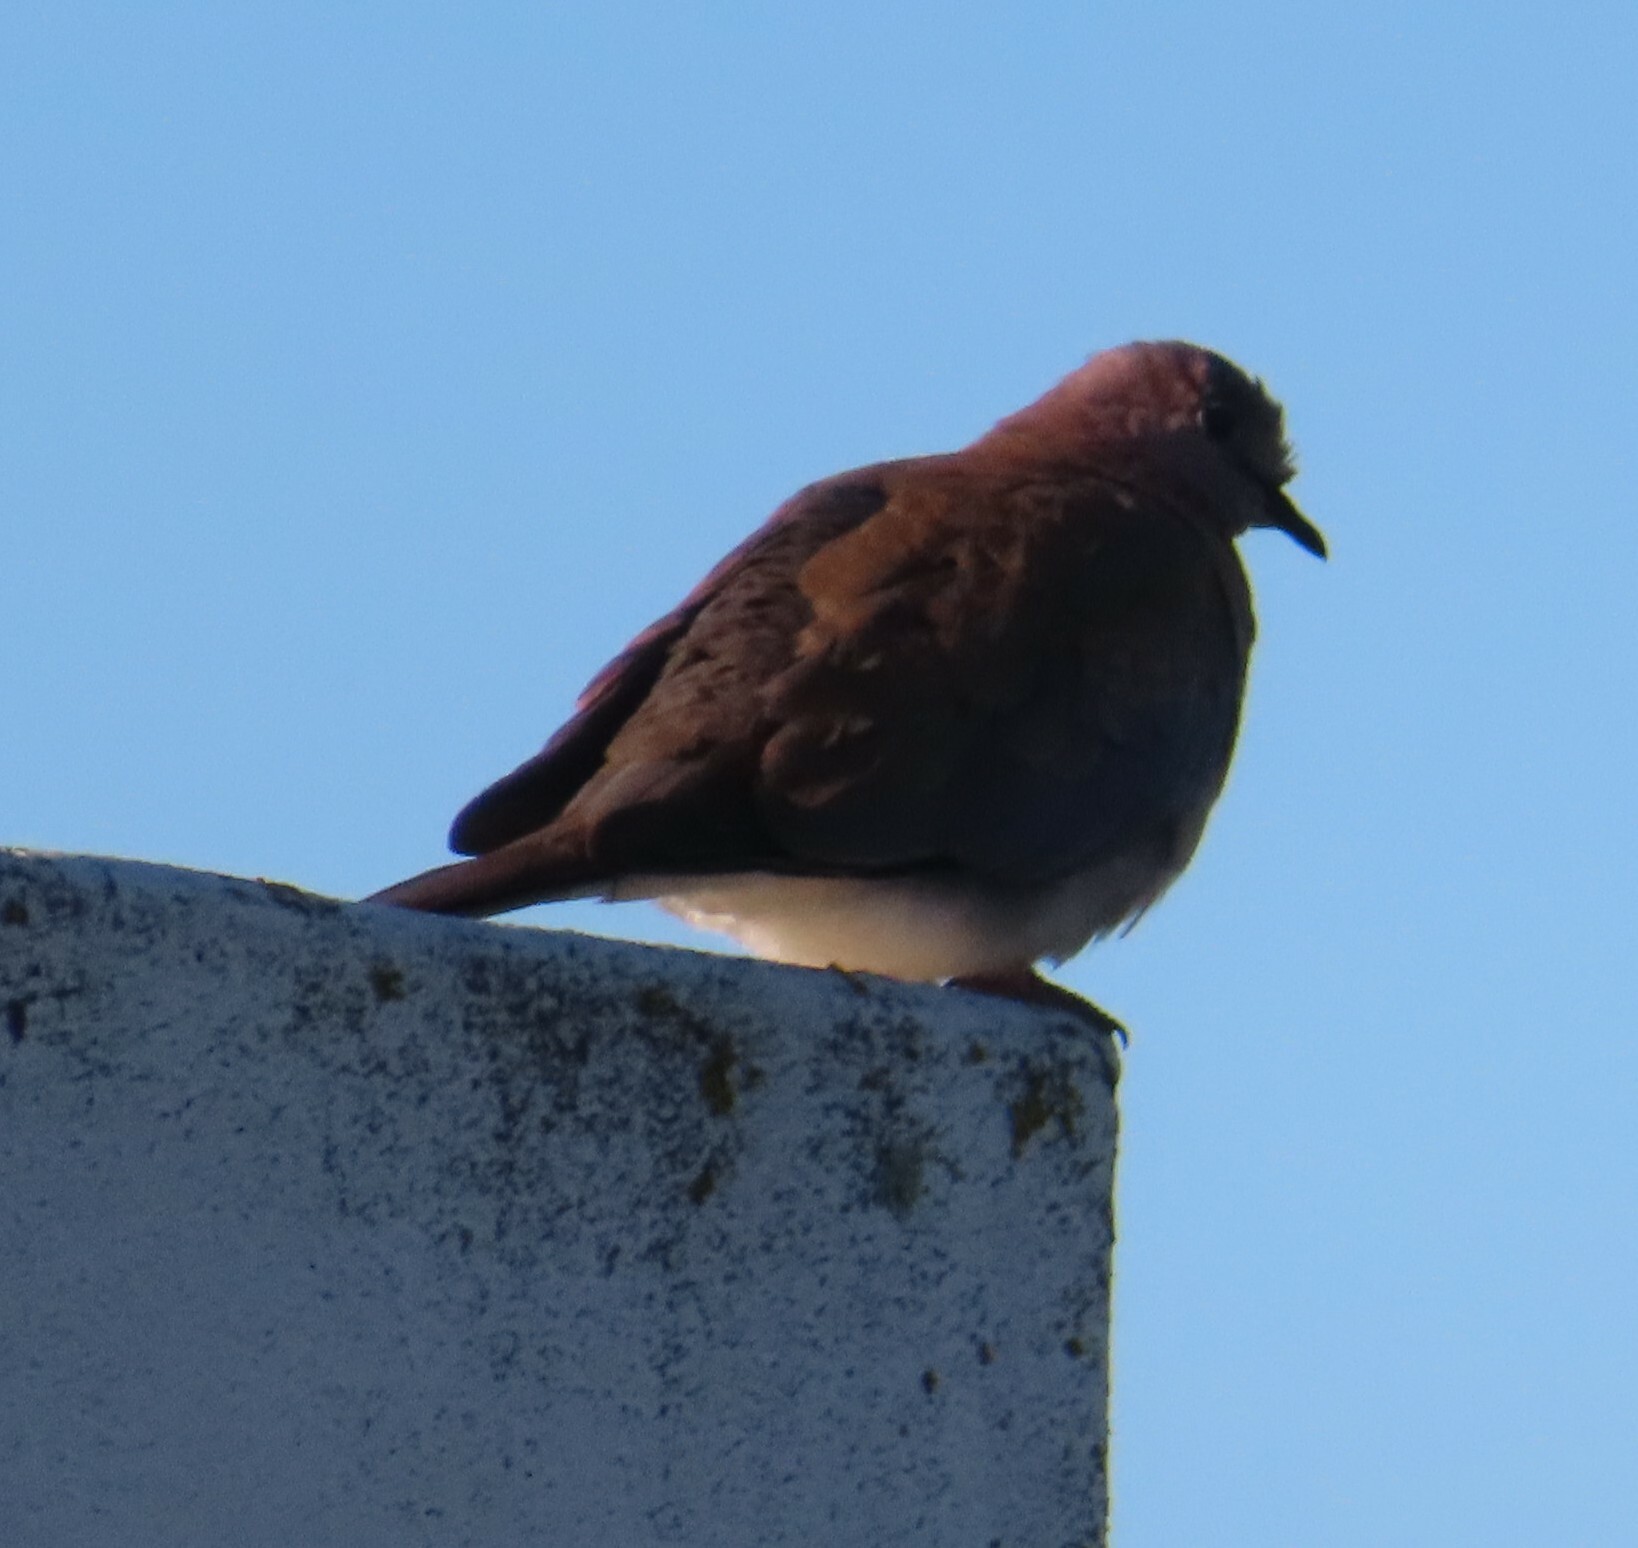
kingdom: Animalia
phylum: Chordata
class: Aves
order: Columbiformes
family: Columbidae
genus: Spilopelia
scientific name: Spilopelia senegalensis
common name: Laughing dove
